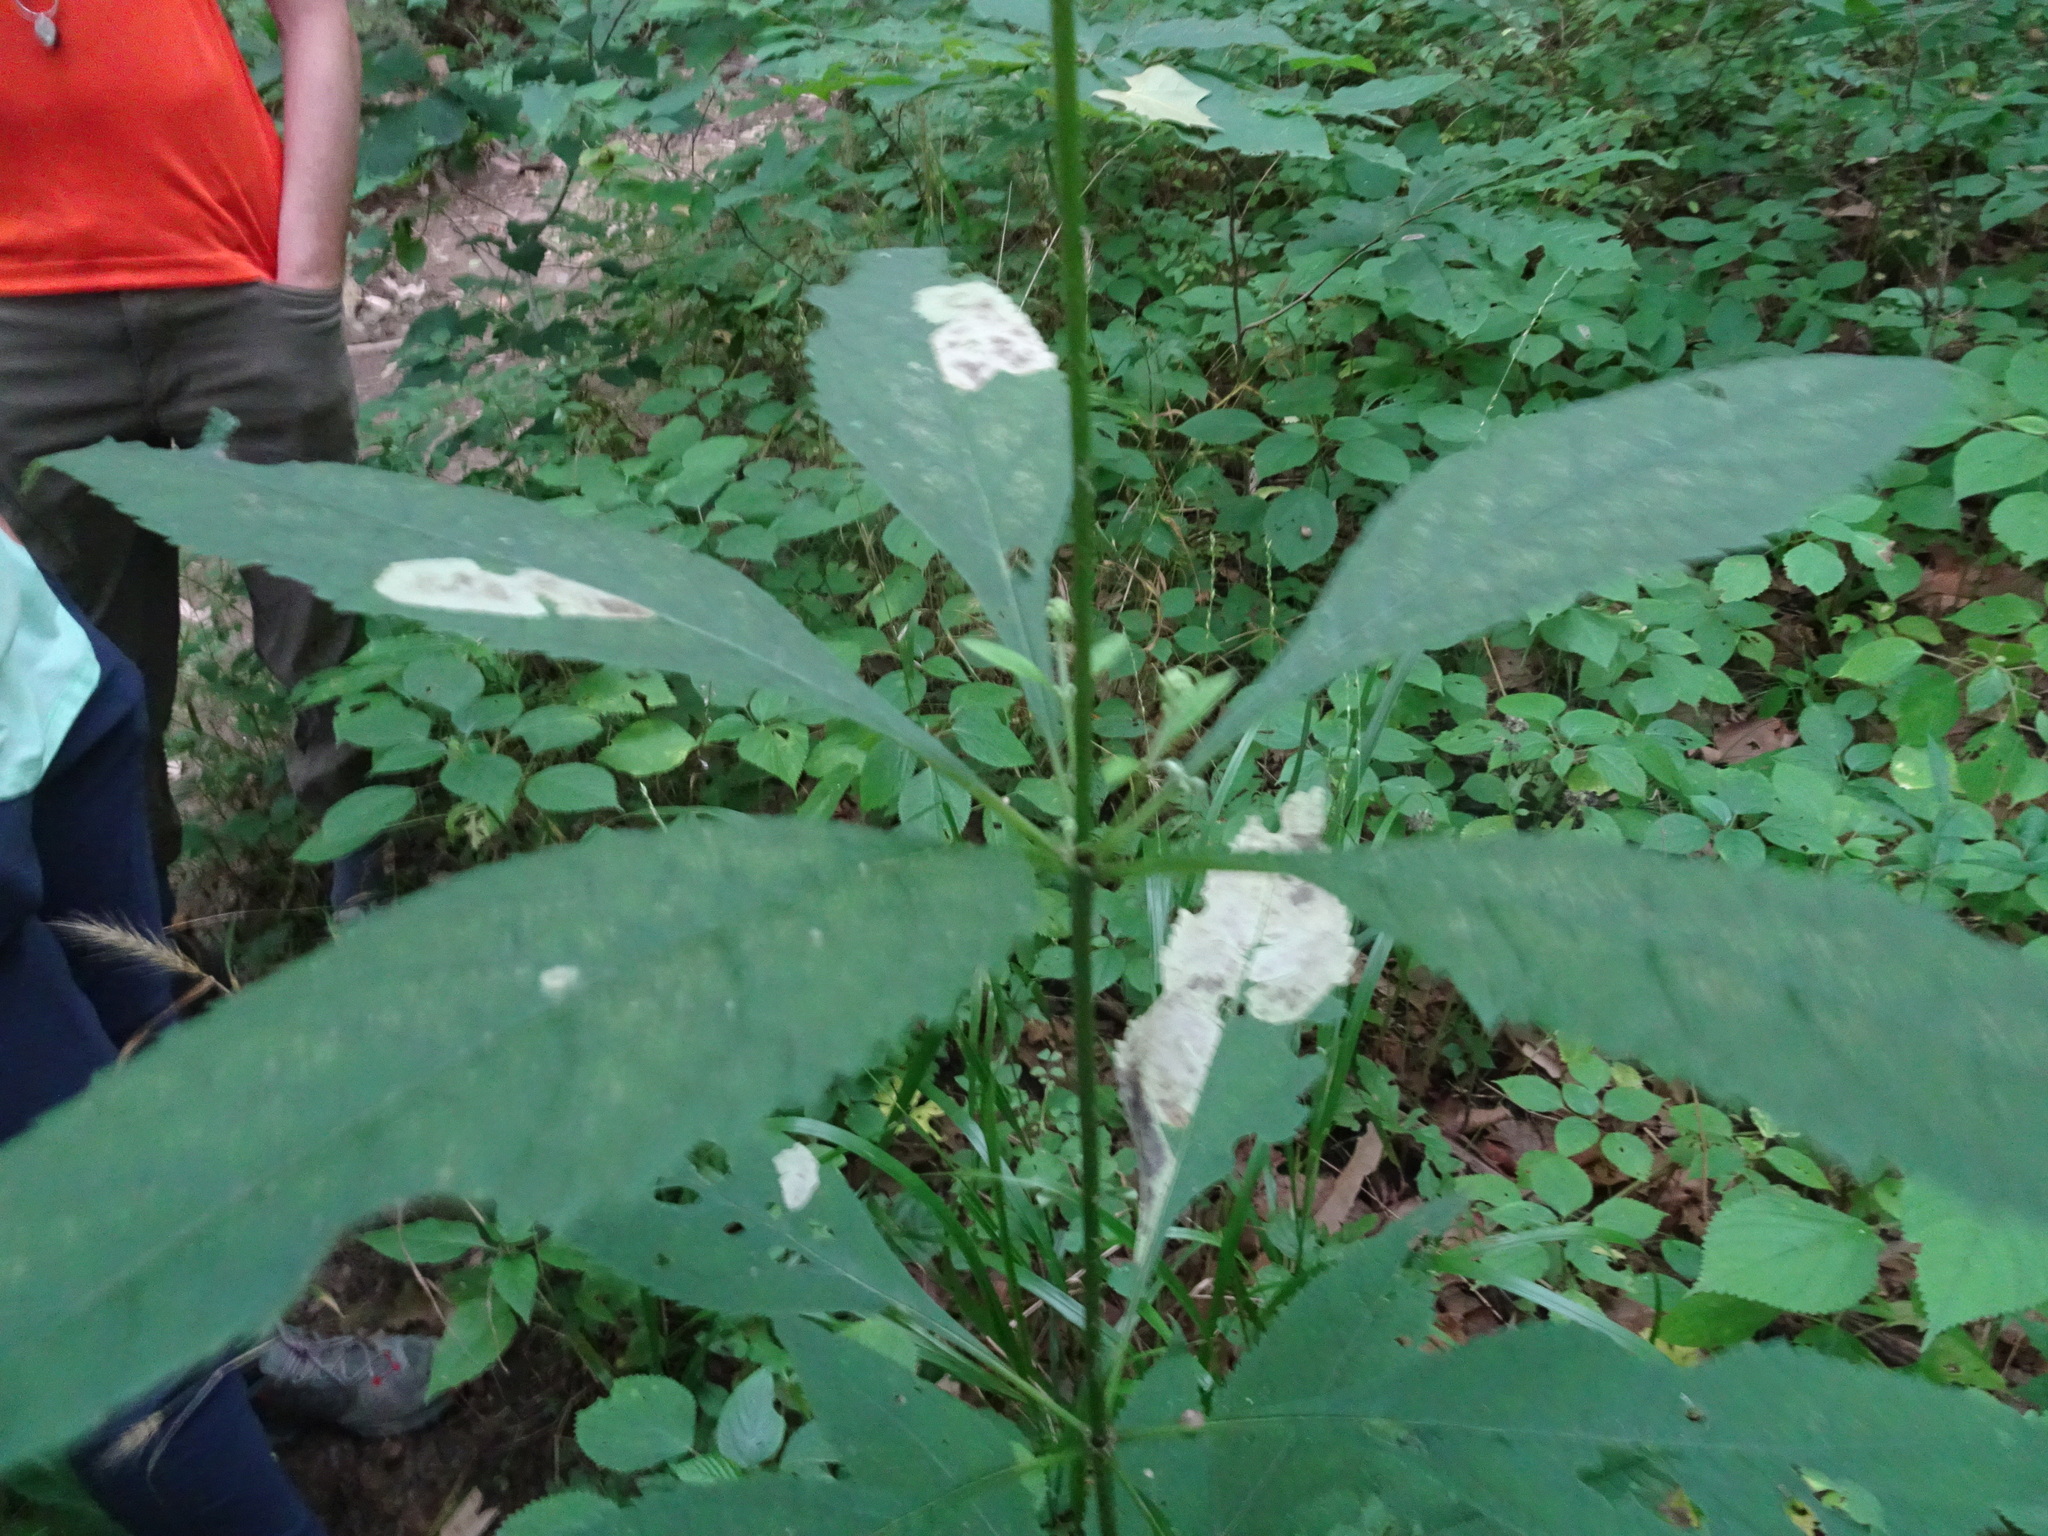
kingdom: Plantae
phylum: Tracheophyta
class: Magnoliopsida
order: Asterales
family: Asteraceae
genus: Eutrochium
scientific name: Eutrochium purpureum
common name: Gravelroot
